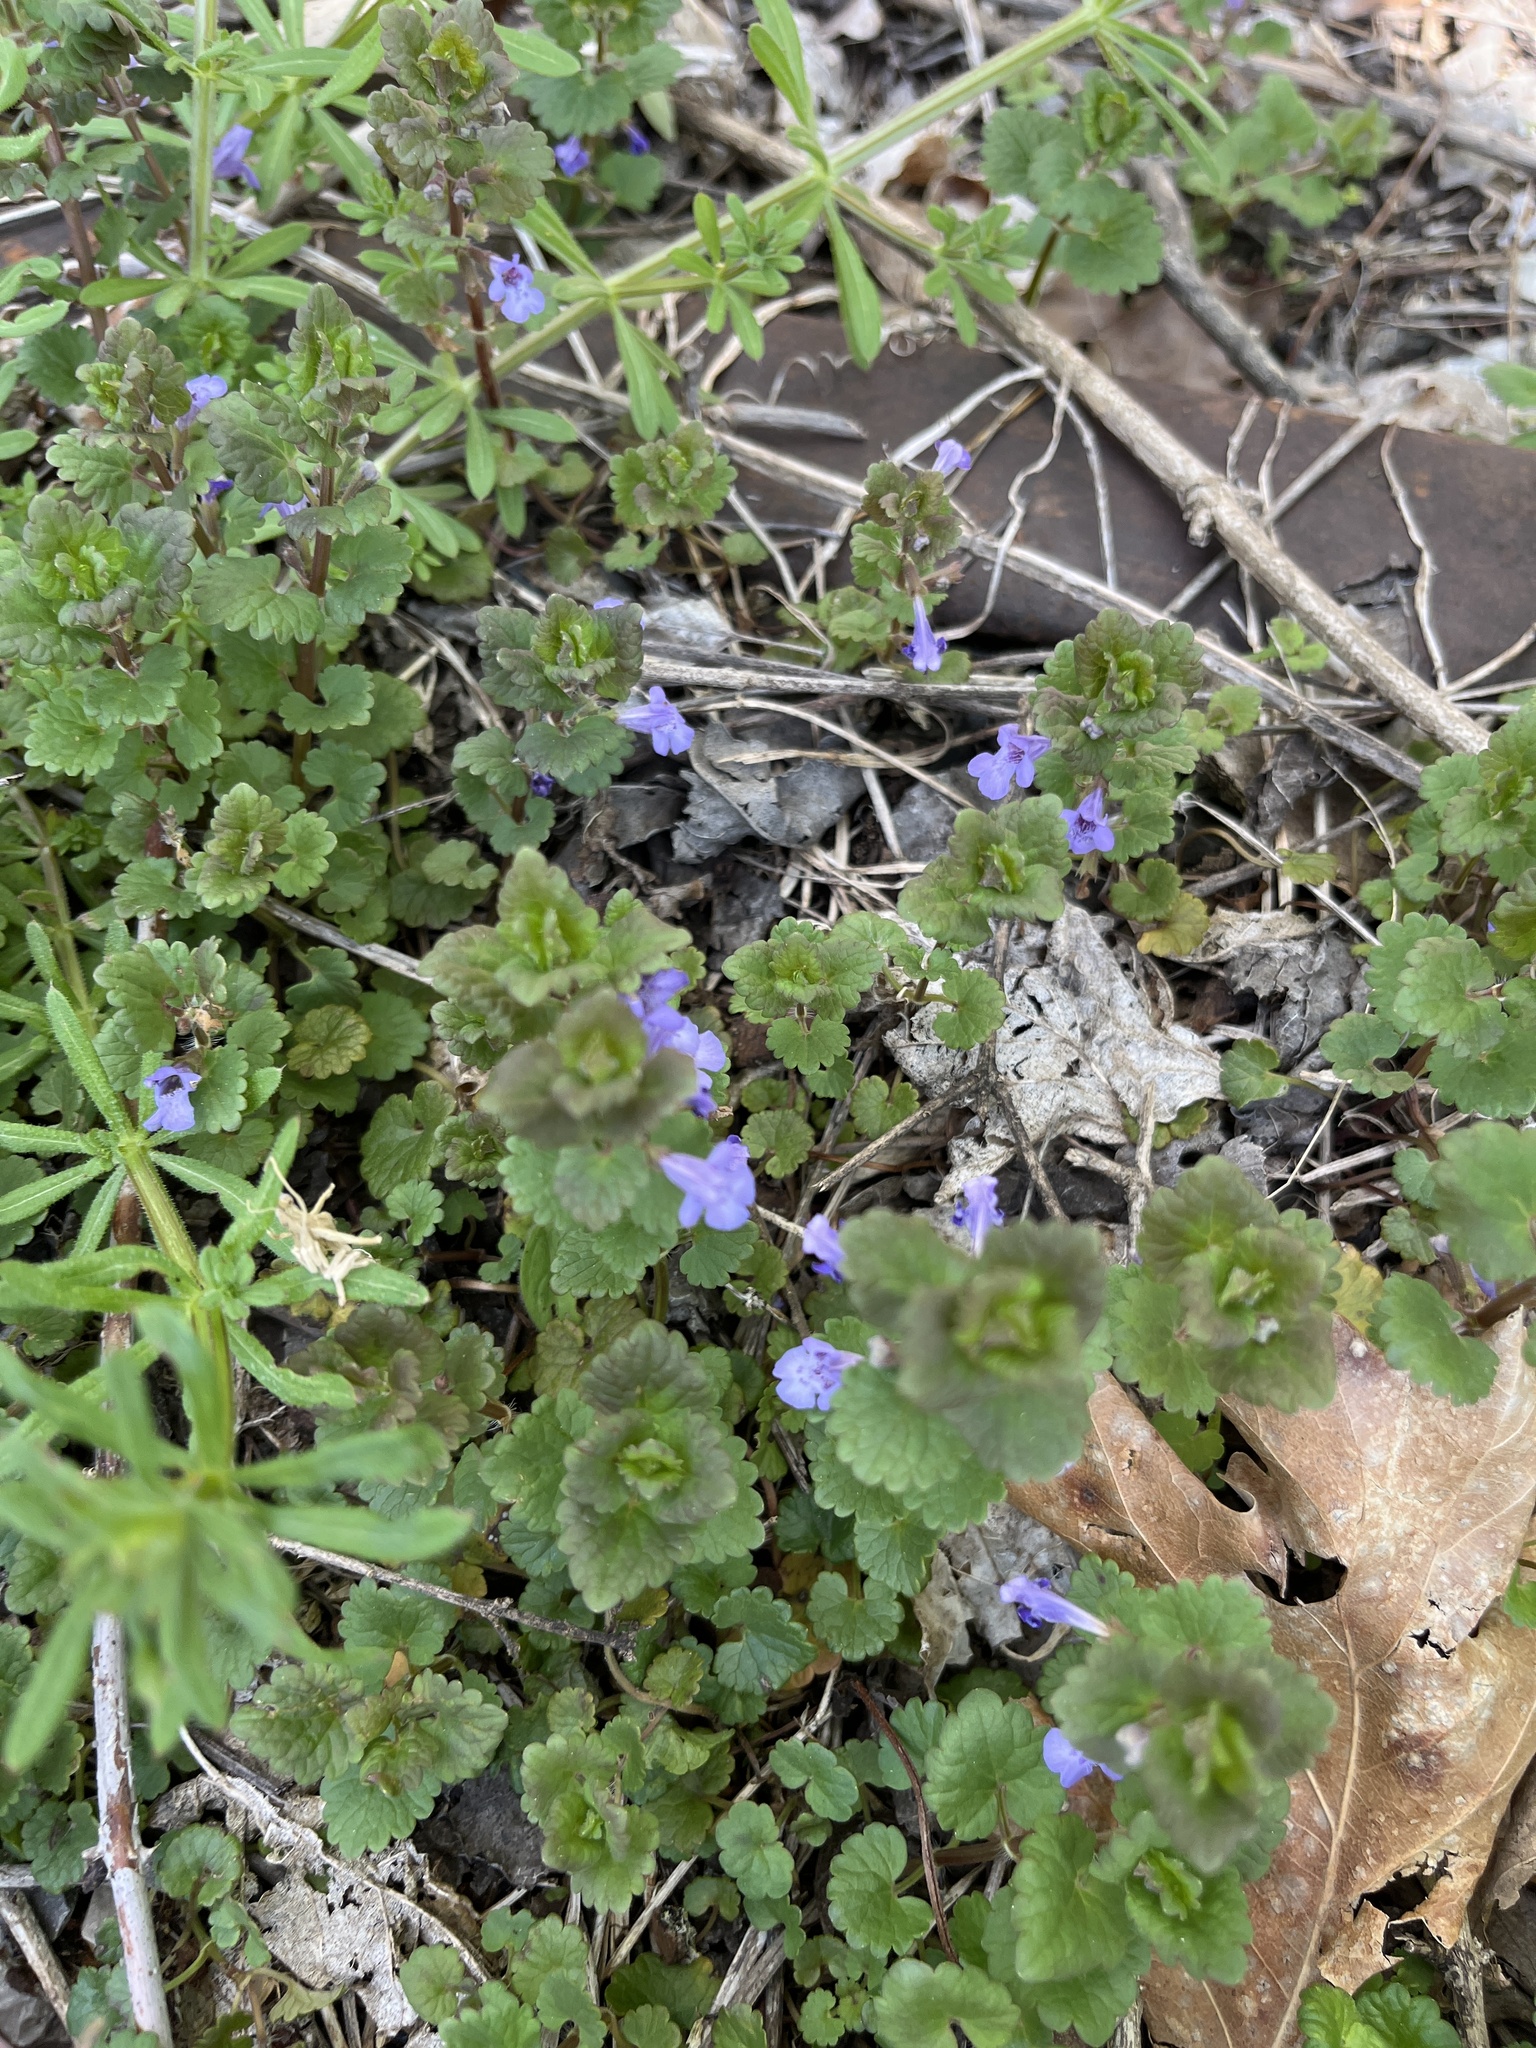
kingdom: Plantae
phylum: Tracheophyta
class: Magnoliopsida
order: Lamiales
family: Lamiaceae
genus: Glechoma
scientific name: Glechoma hederacea
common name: Ground ivy
